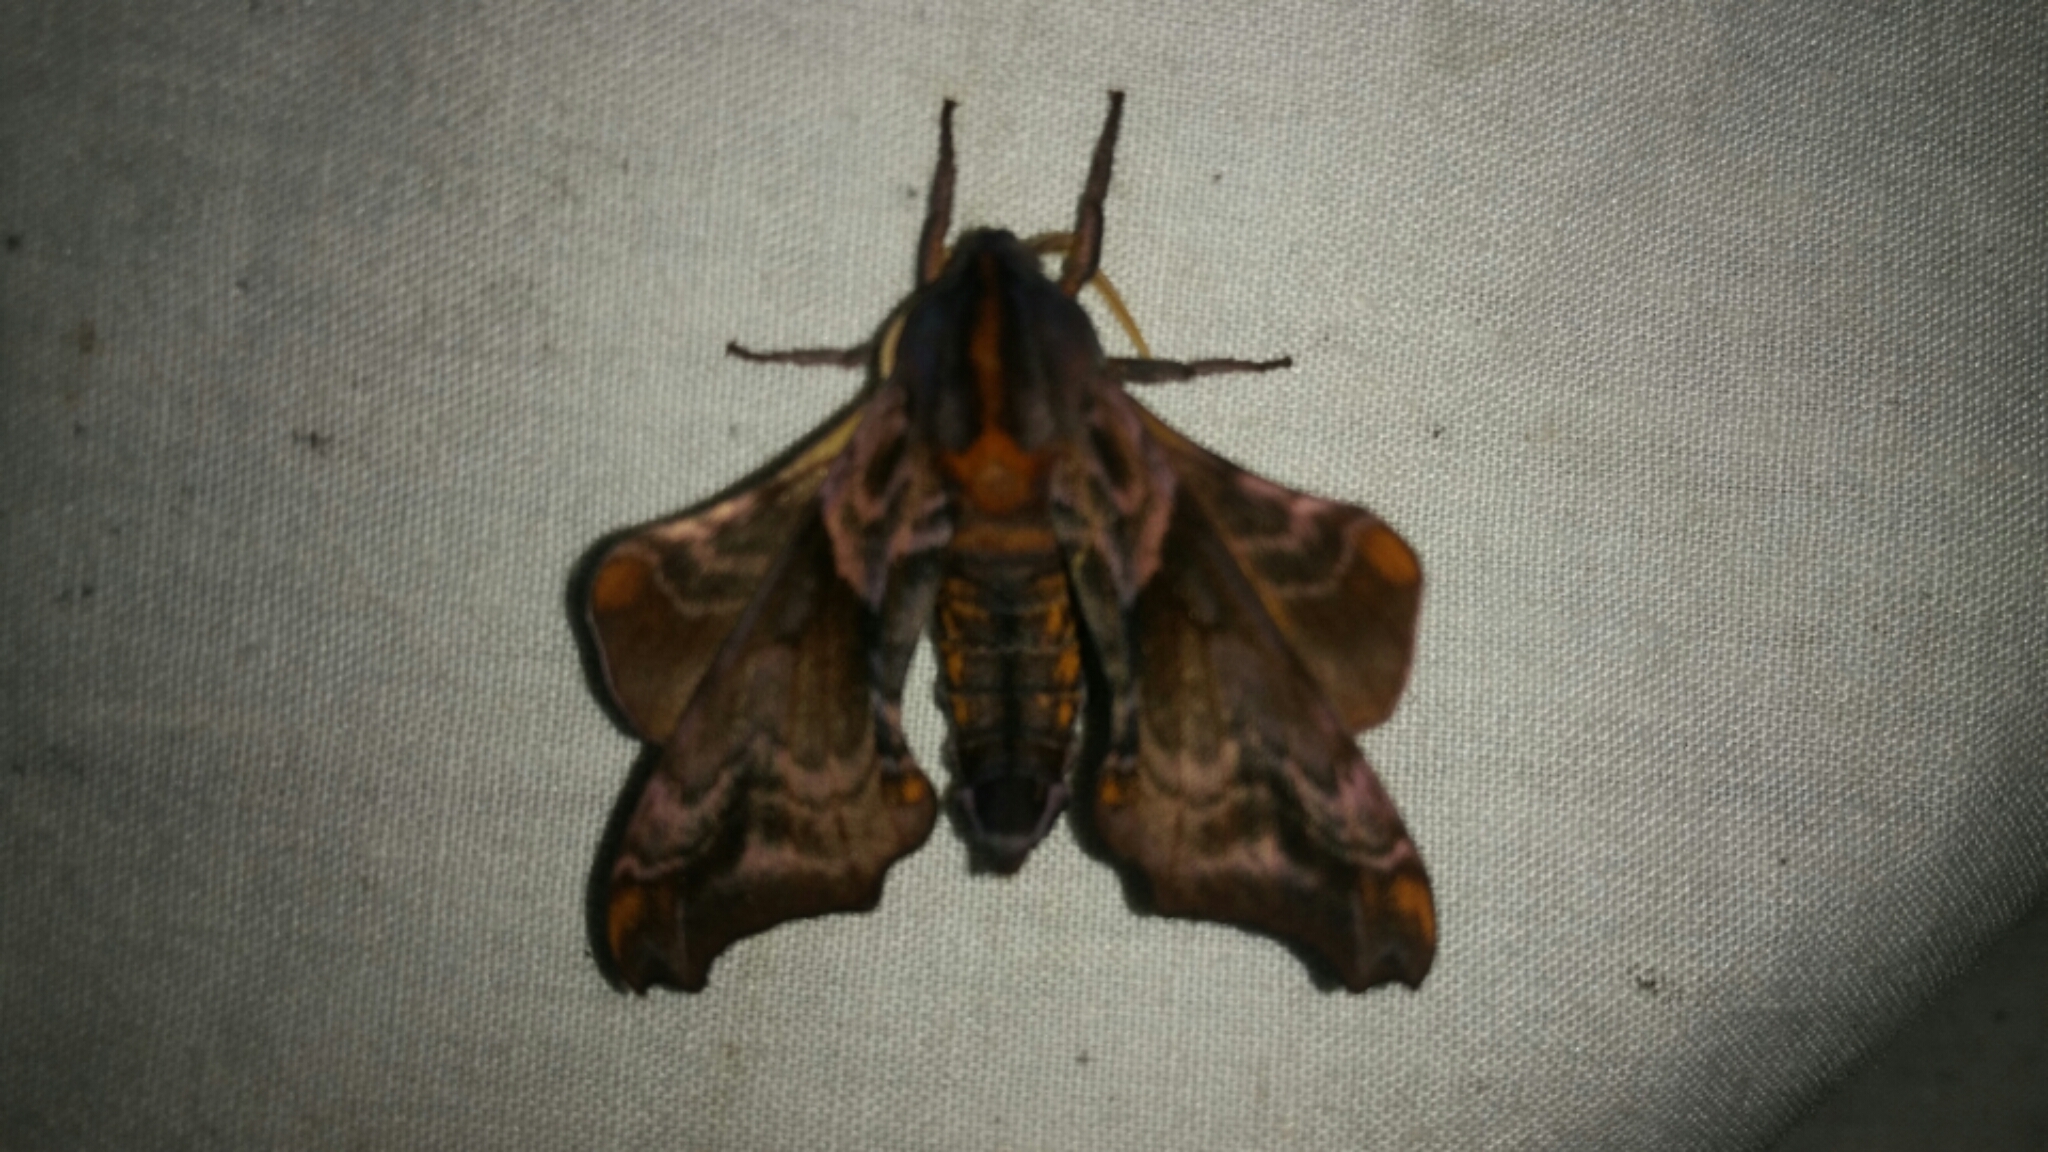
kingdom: Animalia
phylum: Arthropoda
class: Insecta
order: Lepidoptera
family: Sphingidae
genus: Paonias
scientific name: Paonias myops
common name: Small-eyed sphinx
